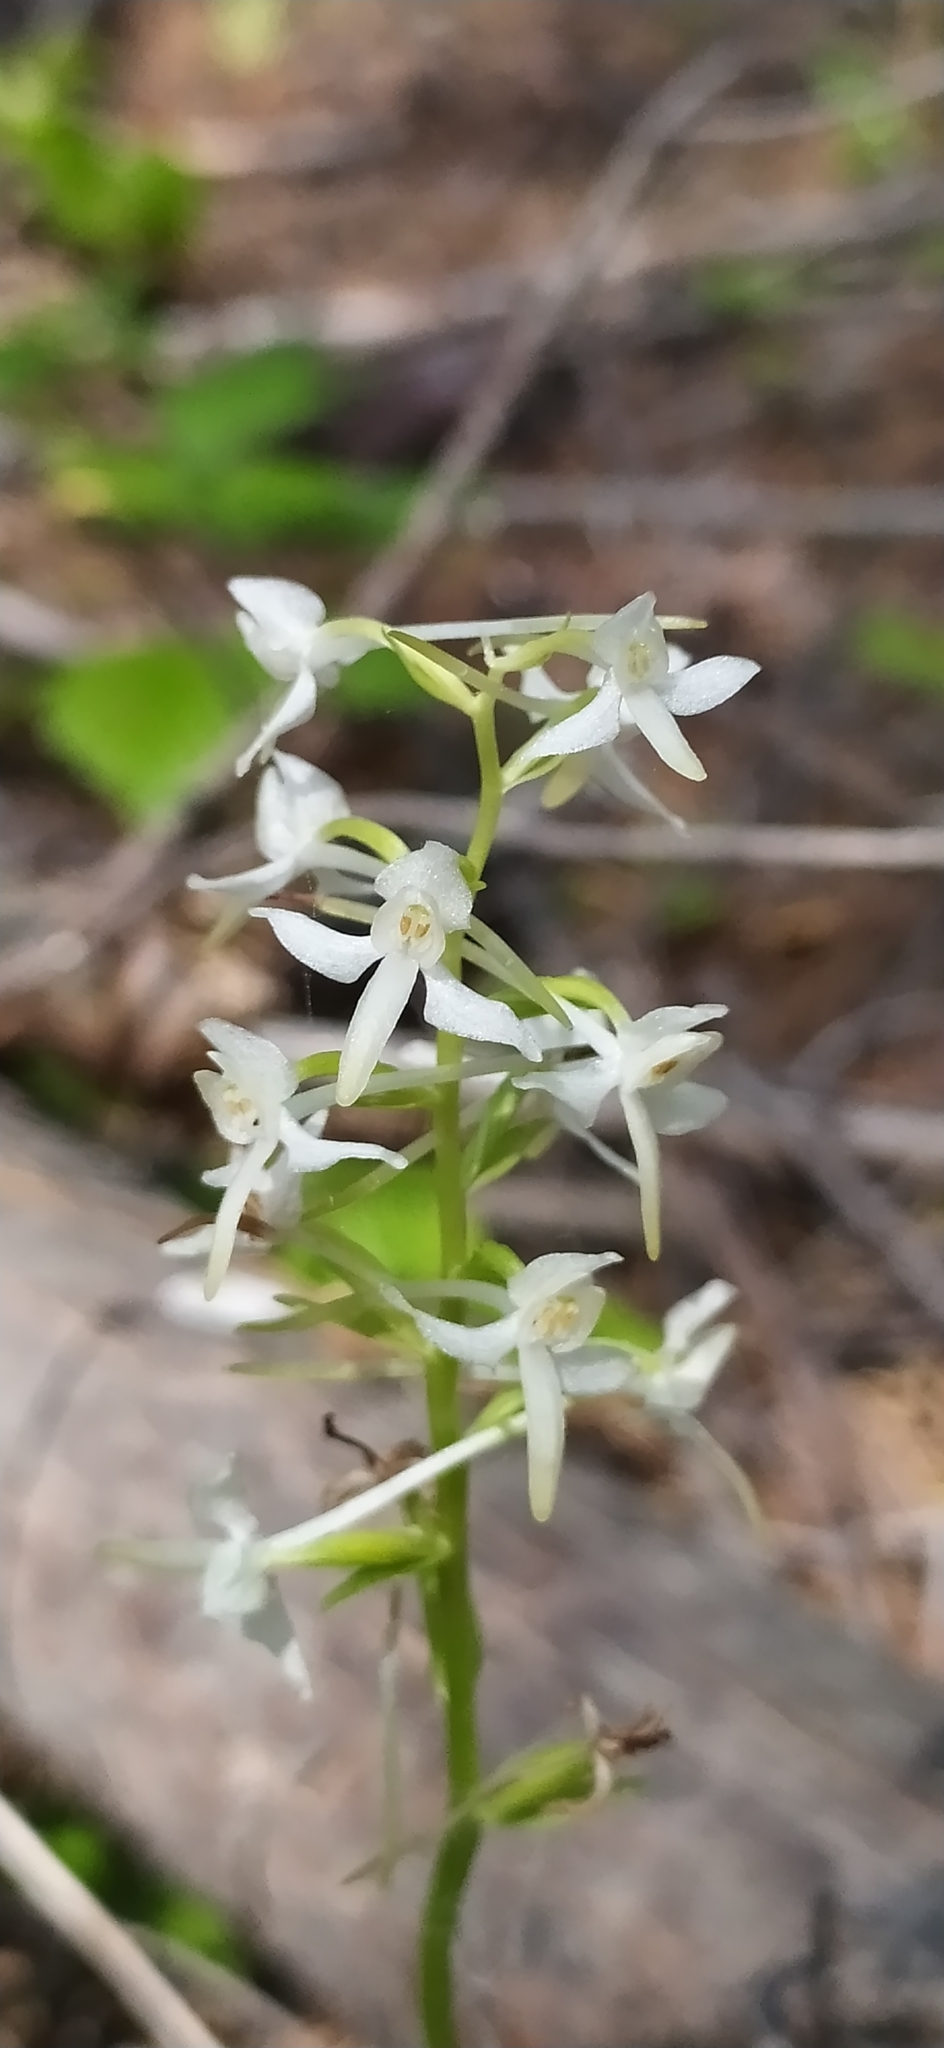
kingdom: Plantae
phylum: Tracheophyta
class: Liliopsida
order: Asparagales
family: Orchidaceae
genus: Platanthera
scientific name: Platanthera bifolia
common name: Lesser butterfly-orchid
